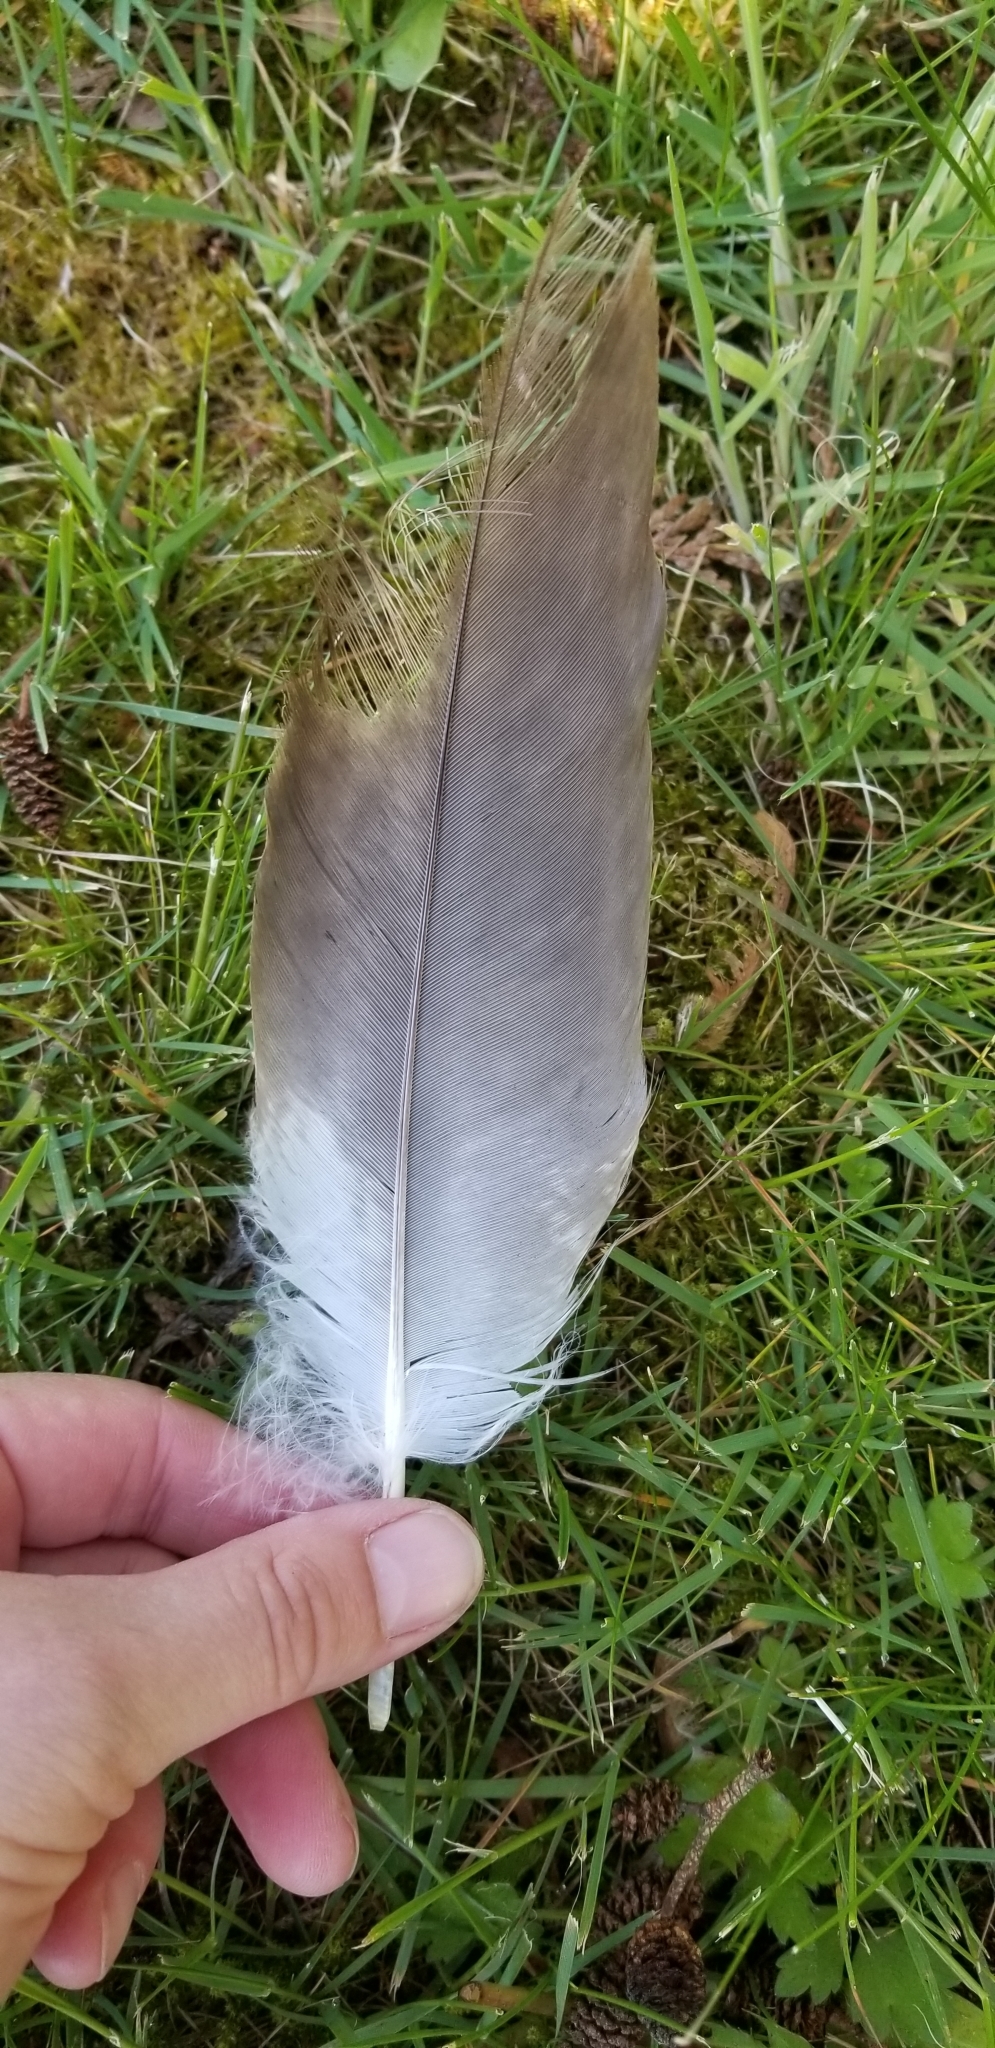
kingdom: Animalia
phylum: Chordata
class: Aves
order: Accipitriformes
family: Accipitridae
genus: Haliaeetus
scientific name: Haliaeetus leucocephalus
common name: Bald eagle
